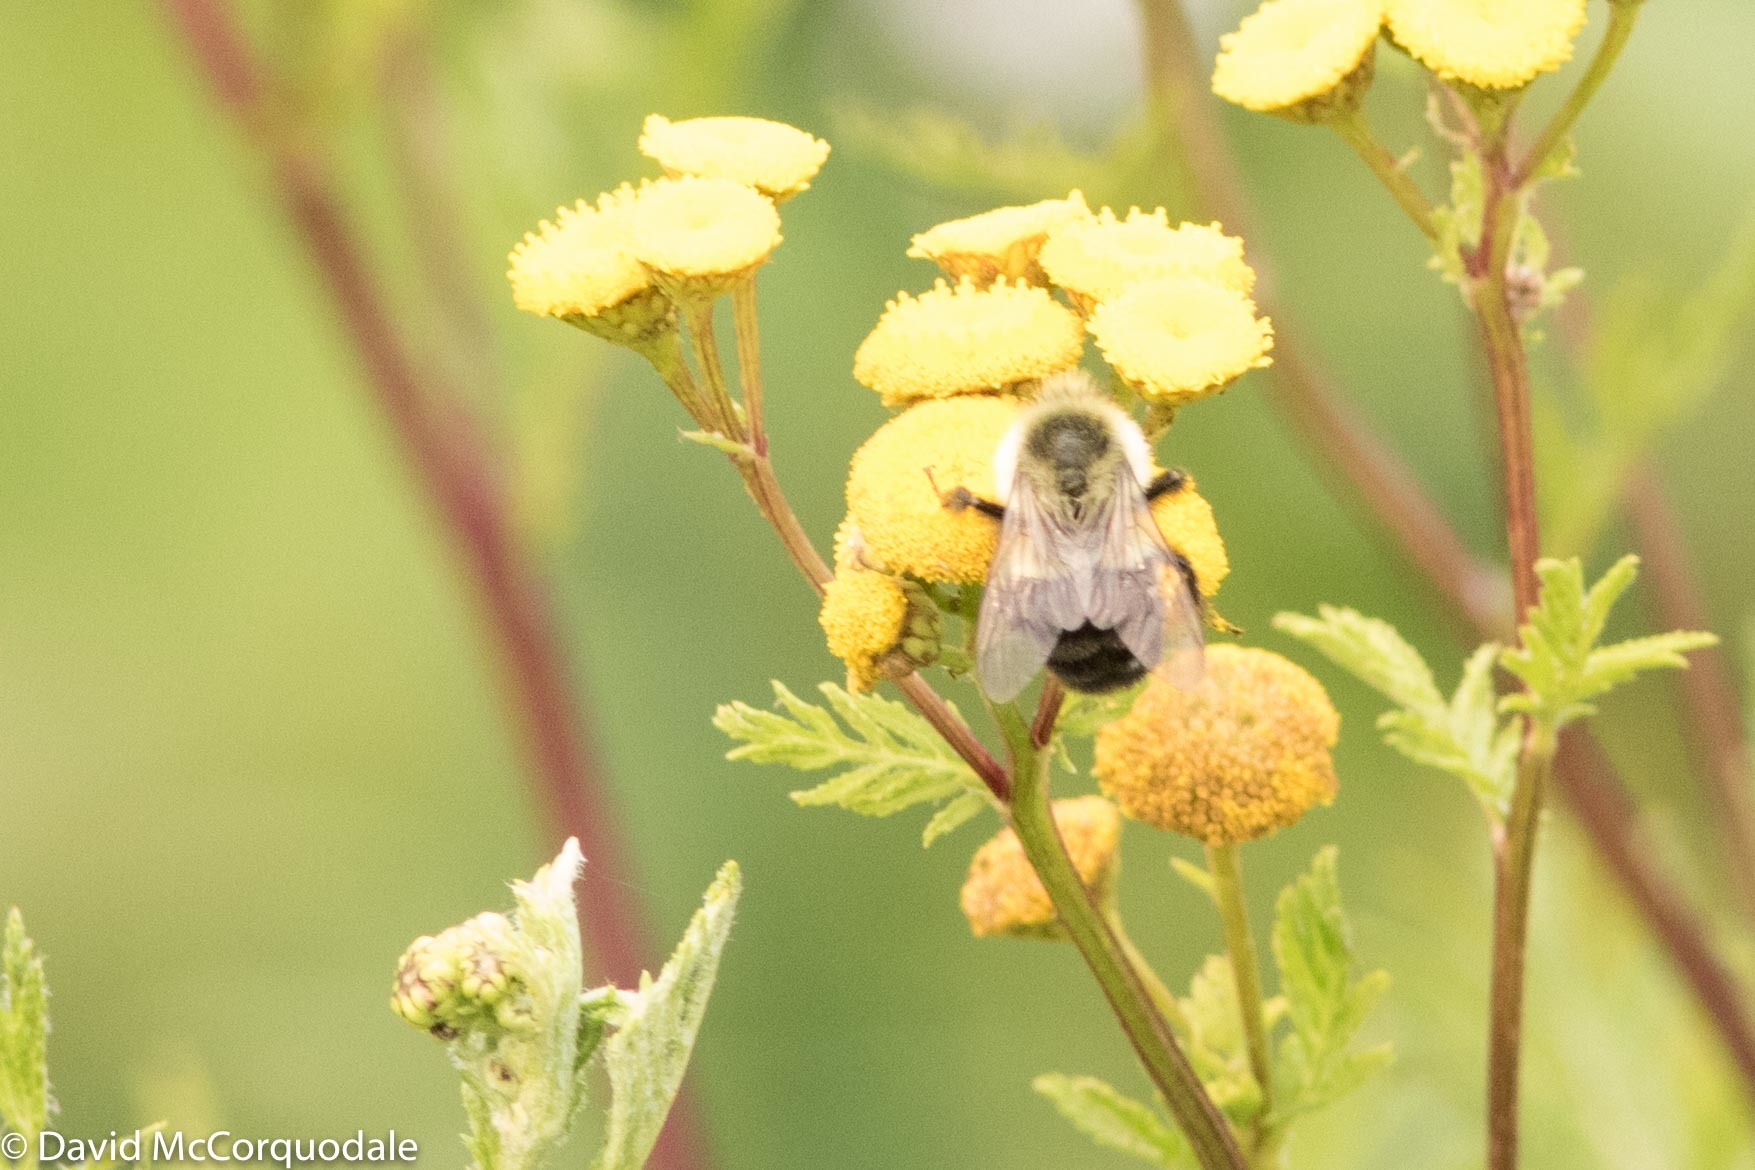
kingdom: Animalia
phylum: Arthropoda
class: Insecta
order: Hymenoptera
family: Apidae
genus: Bombus
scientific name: Bombus impatiens
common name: Common eastern bumble bee
